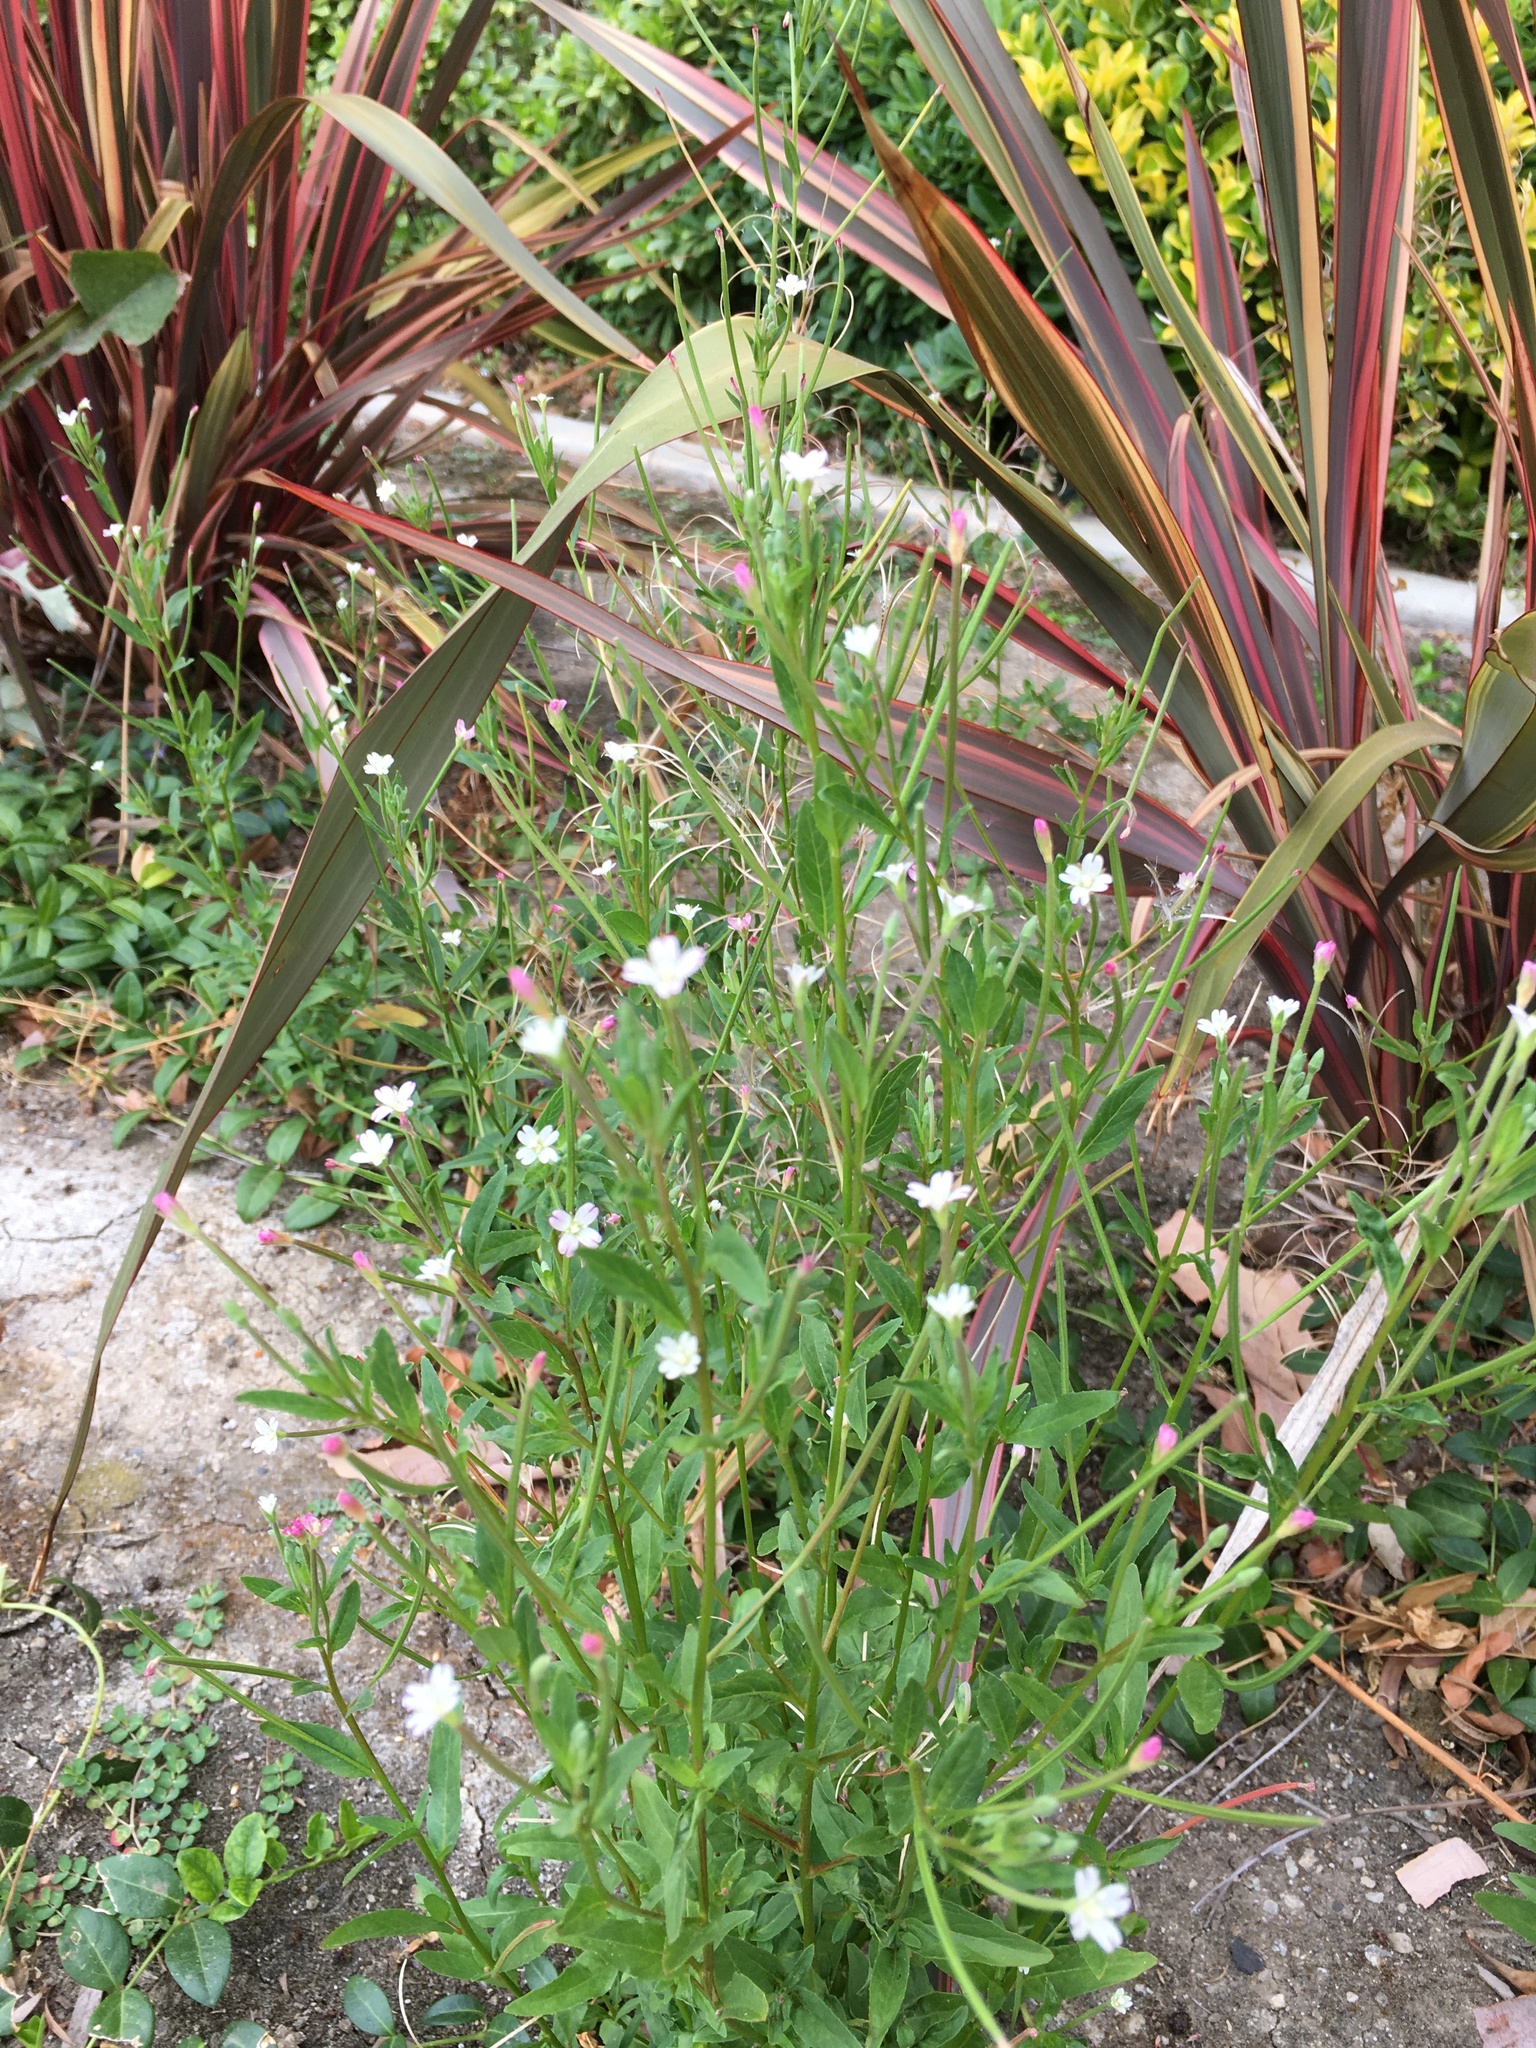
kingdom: Plantae
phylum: Tracheophyta
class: Magnoliopsida
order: Myrtales
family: Onagraceae
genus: Epilobium
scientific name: Epilobium ciliatum
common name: American willowherb
